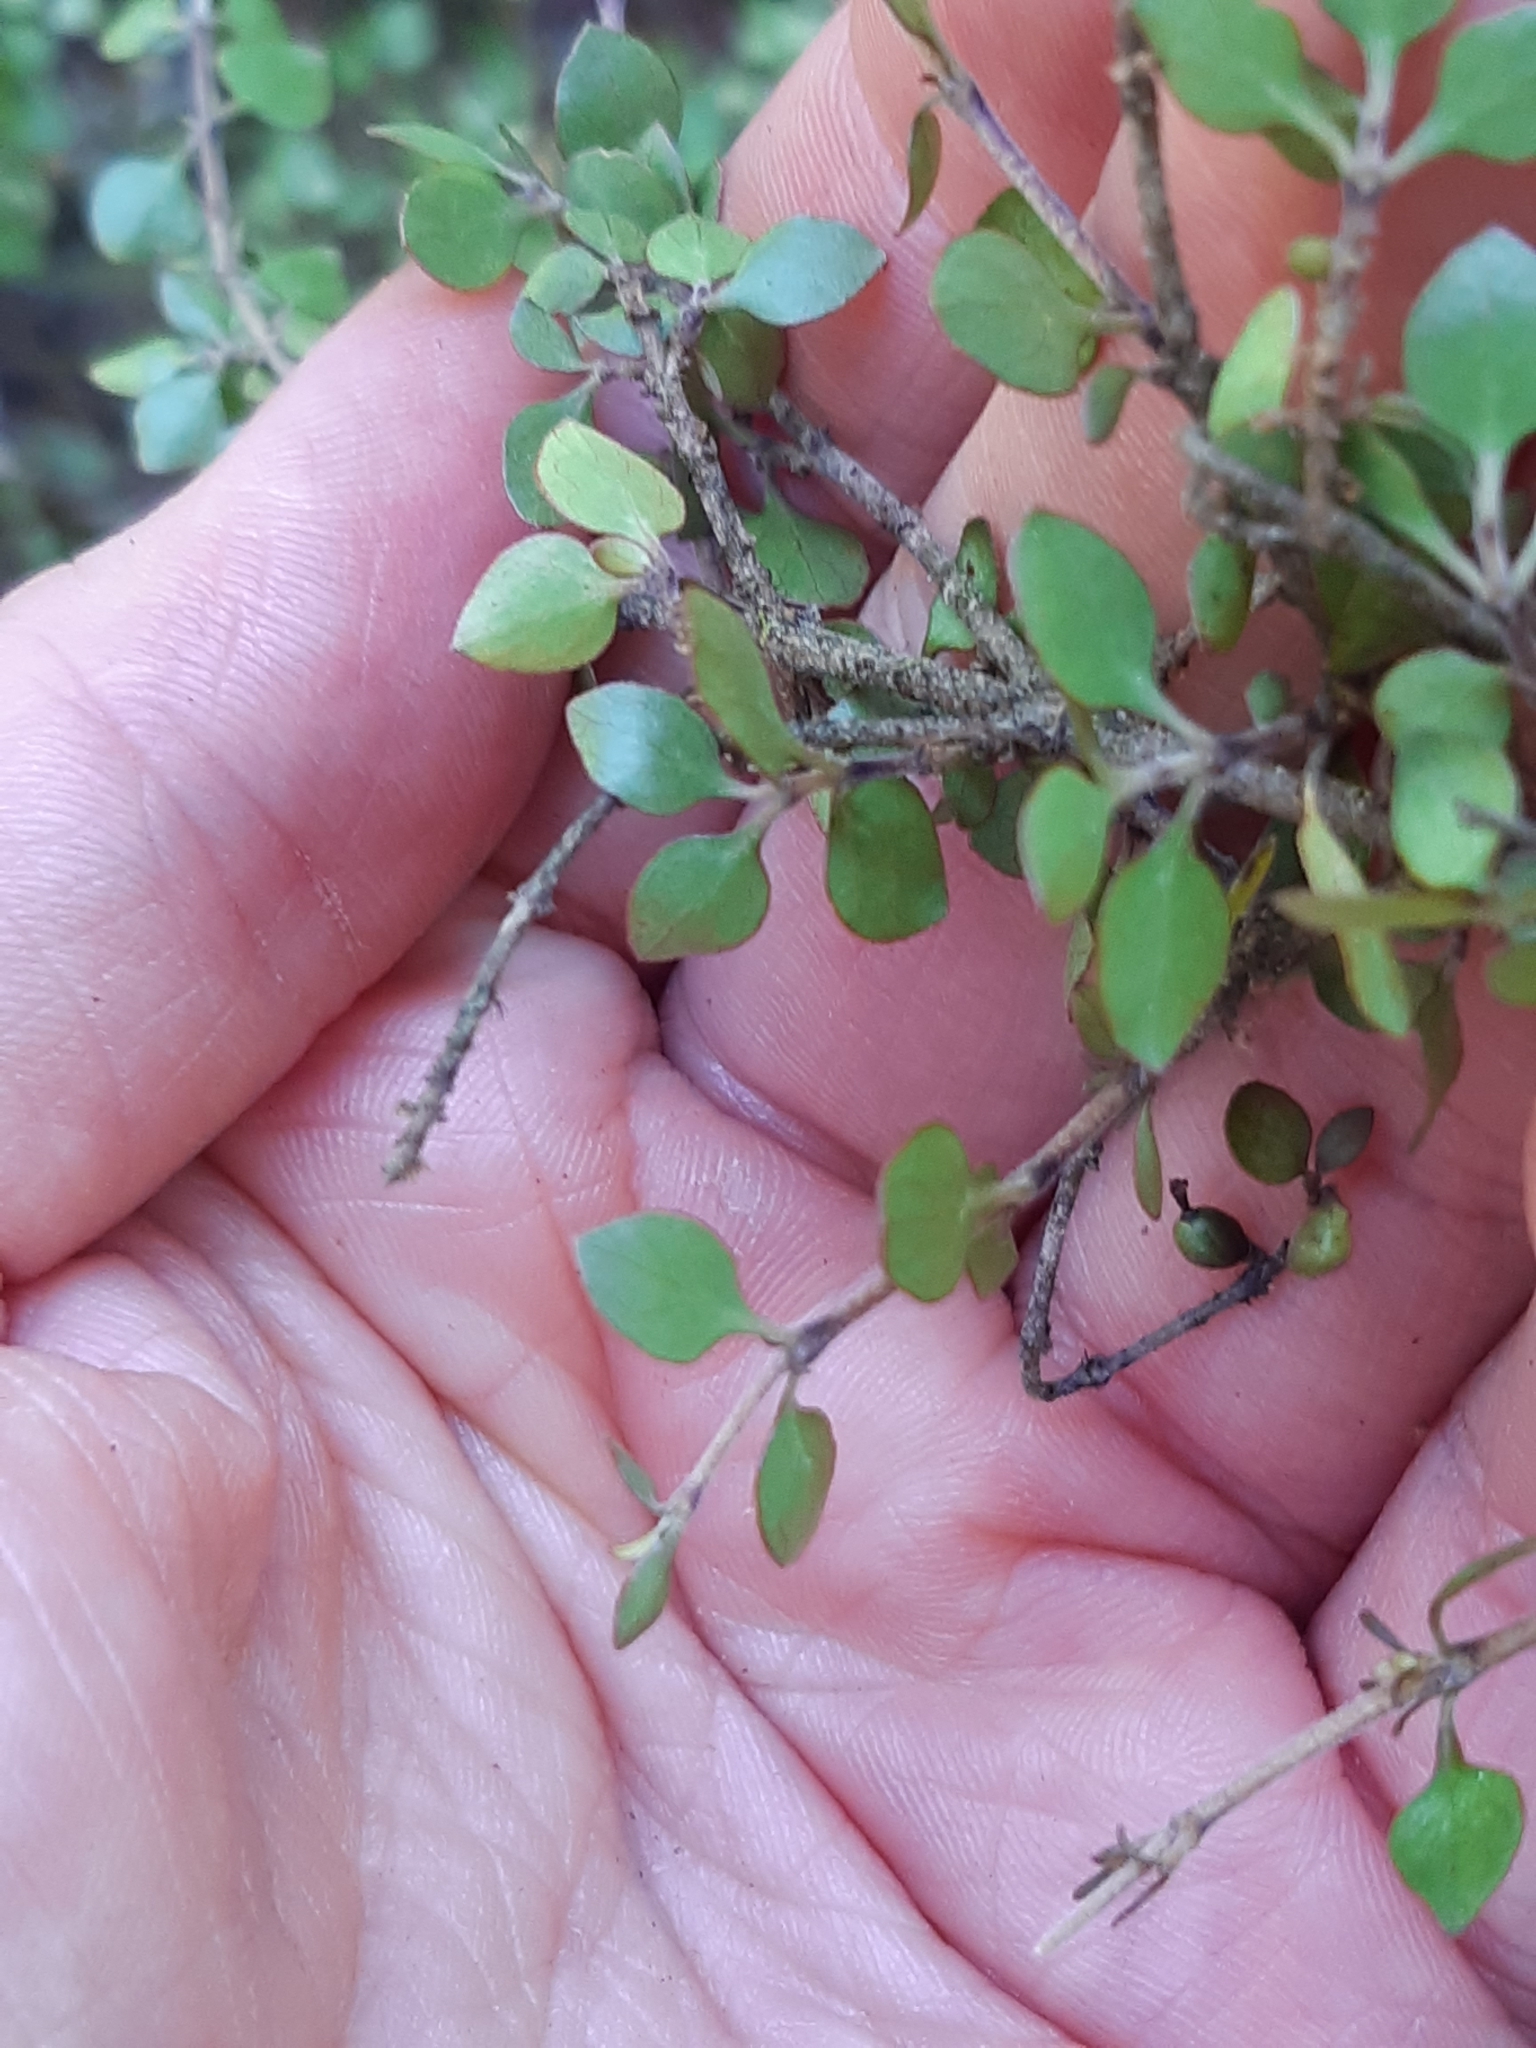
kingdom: Plantae
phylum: Tracheophyta
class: Magnoliopsida
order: Gentianales
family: Rubiaceae
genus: Coprosma
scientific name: Coprosma rhamnoides
